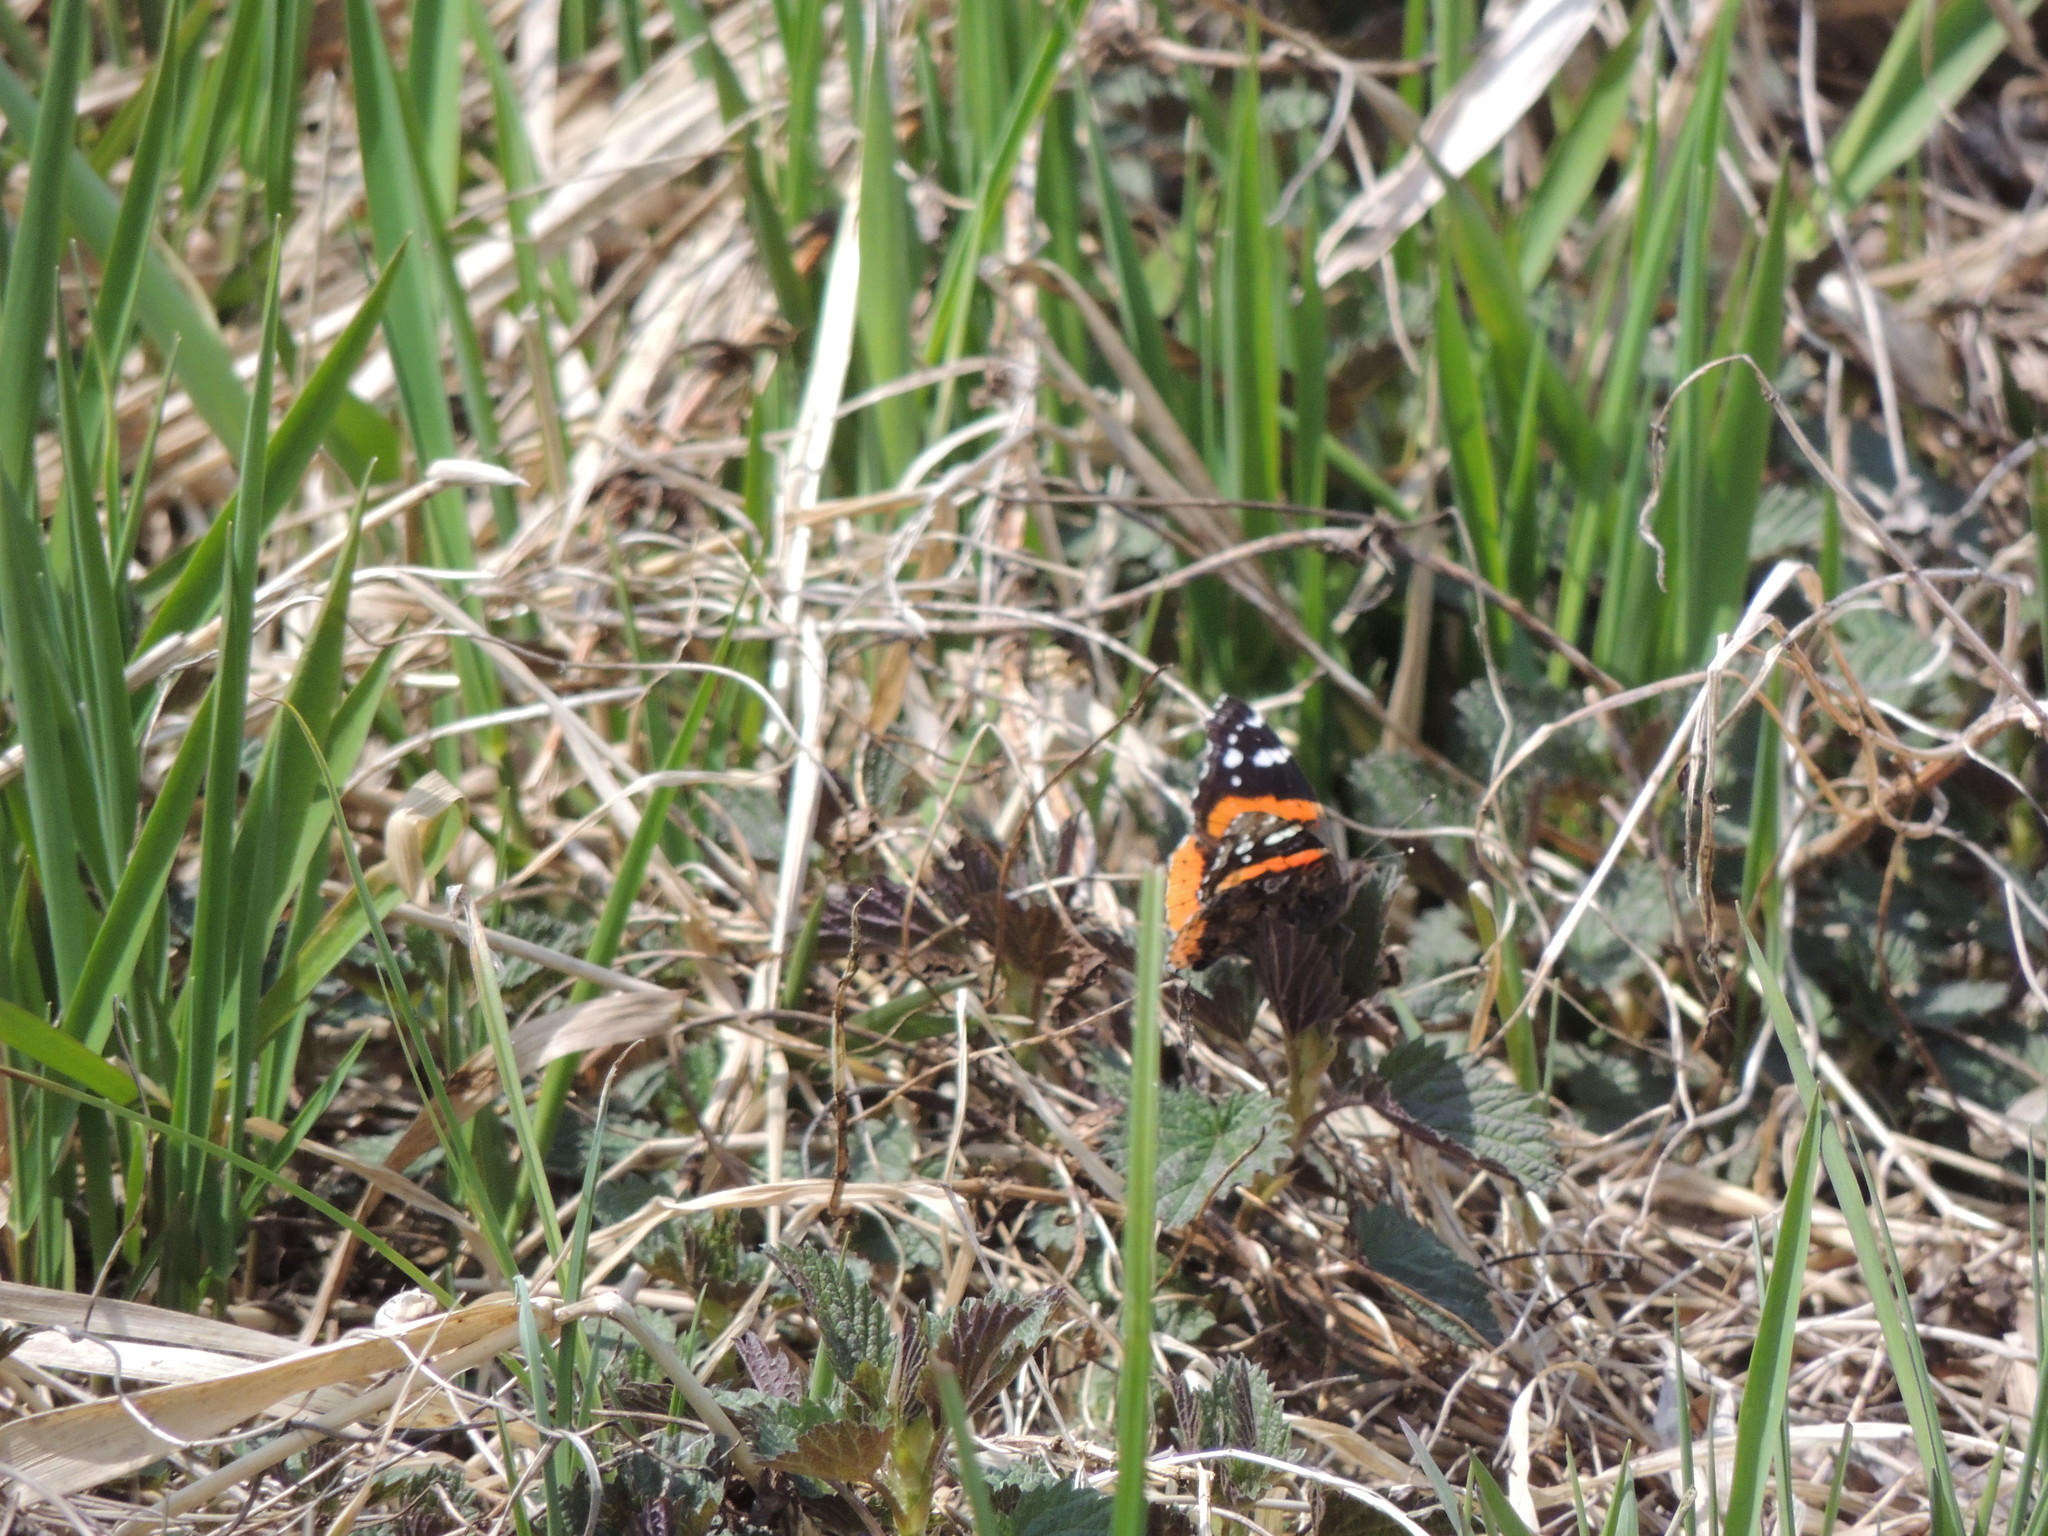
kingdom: Animalia
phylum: Arthropoda
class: Insecta
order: Lepidoptera
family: Nymphalidae
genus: Vanessa
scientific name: Vanessa atalanta
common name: Red admiral
